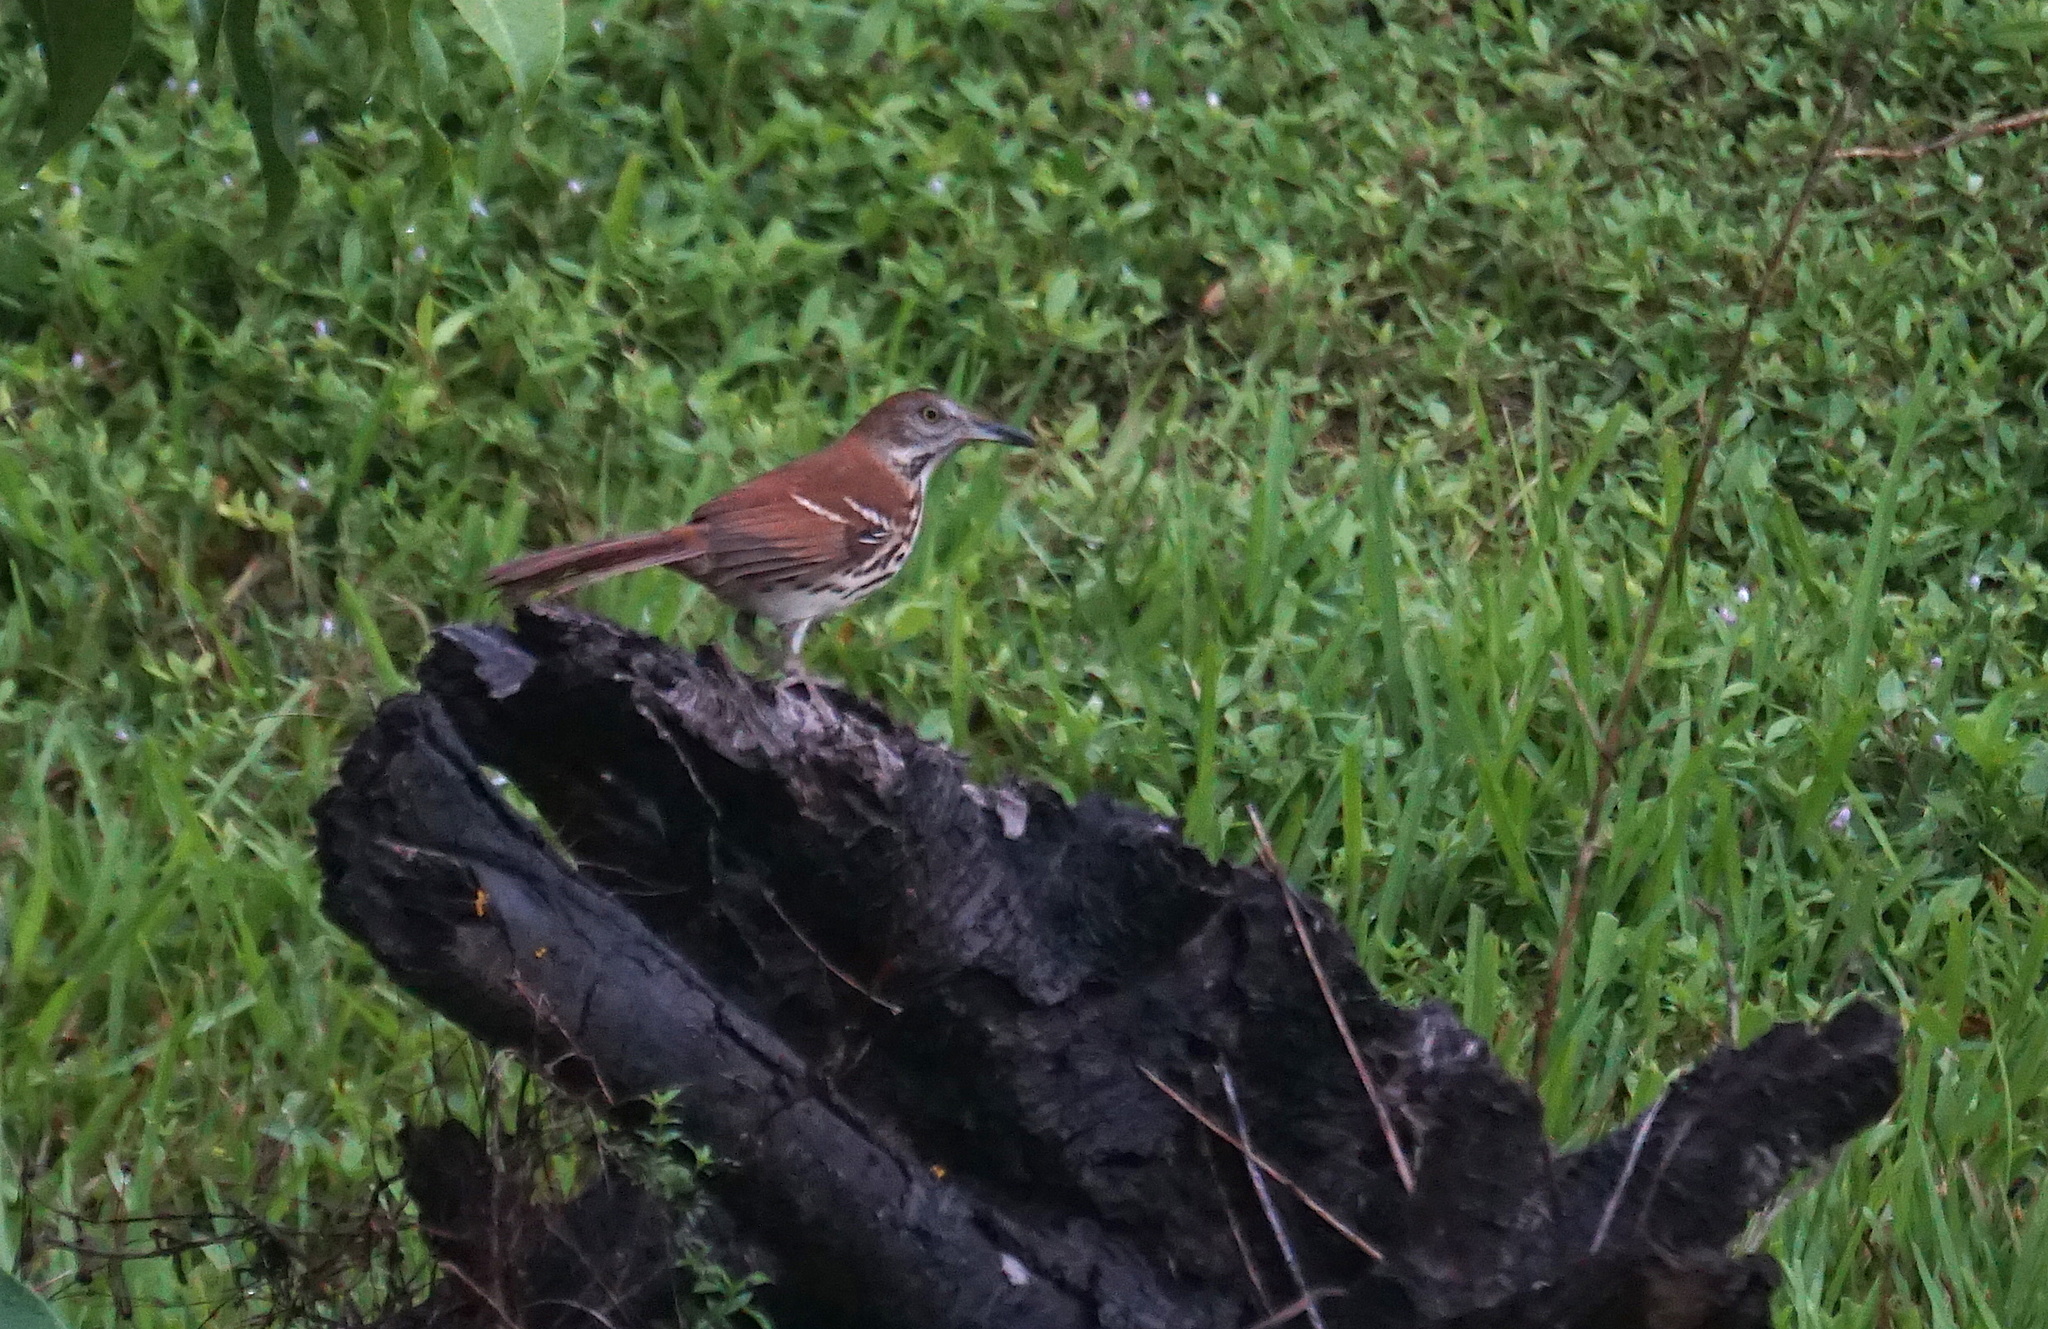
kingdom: Animalia
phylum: Chordata
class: Aves
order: Passeriformes
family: Mimidae
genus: Toxostoma
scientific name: Toxostoma rufum
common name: Brown thrasher
